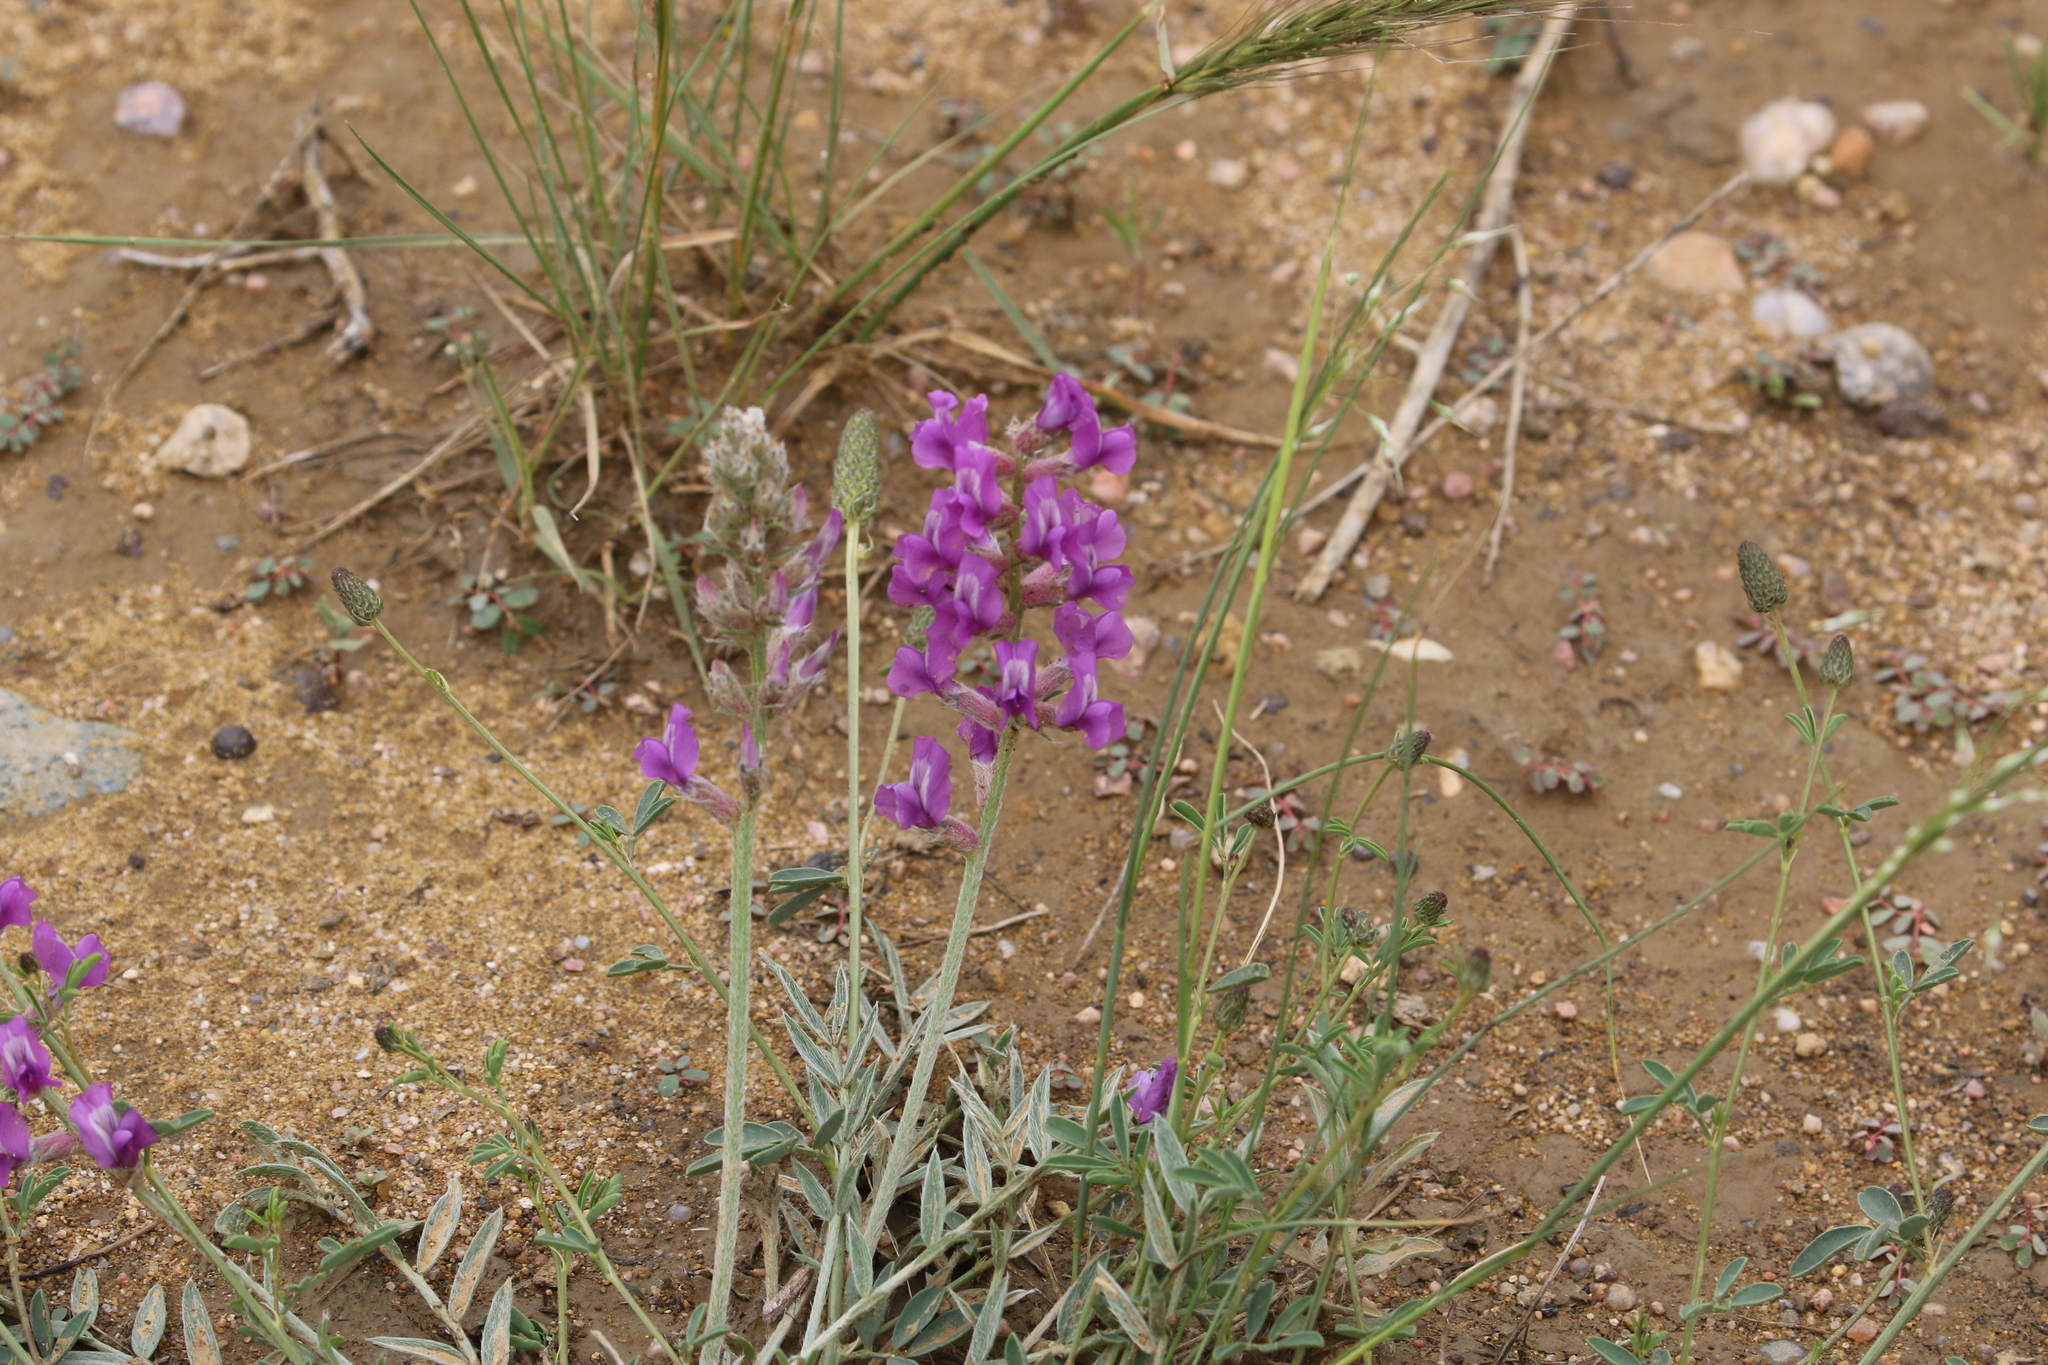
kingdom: Plantae
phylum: Tracheophyta
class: Magnoliopsida
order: Fabales
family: Fabaceae
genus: Oxytropis
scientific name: Oxytropis lambertii
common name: Purple locoweed
